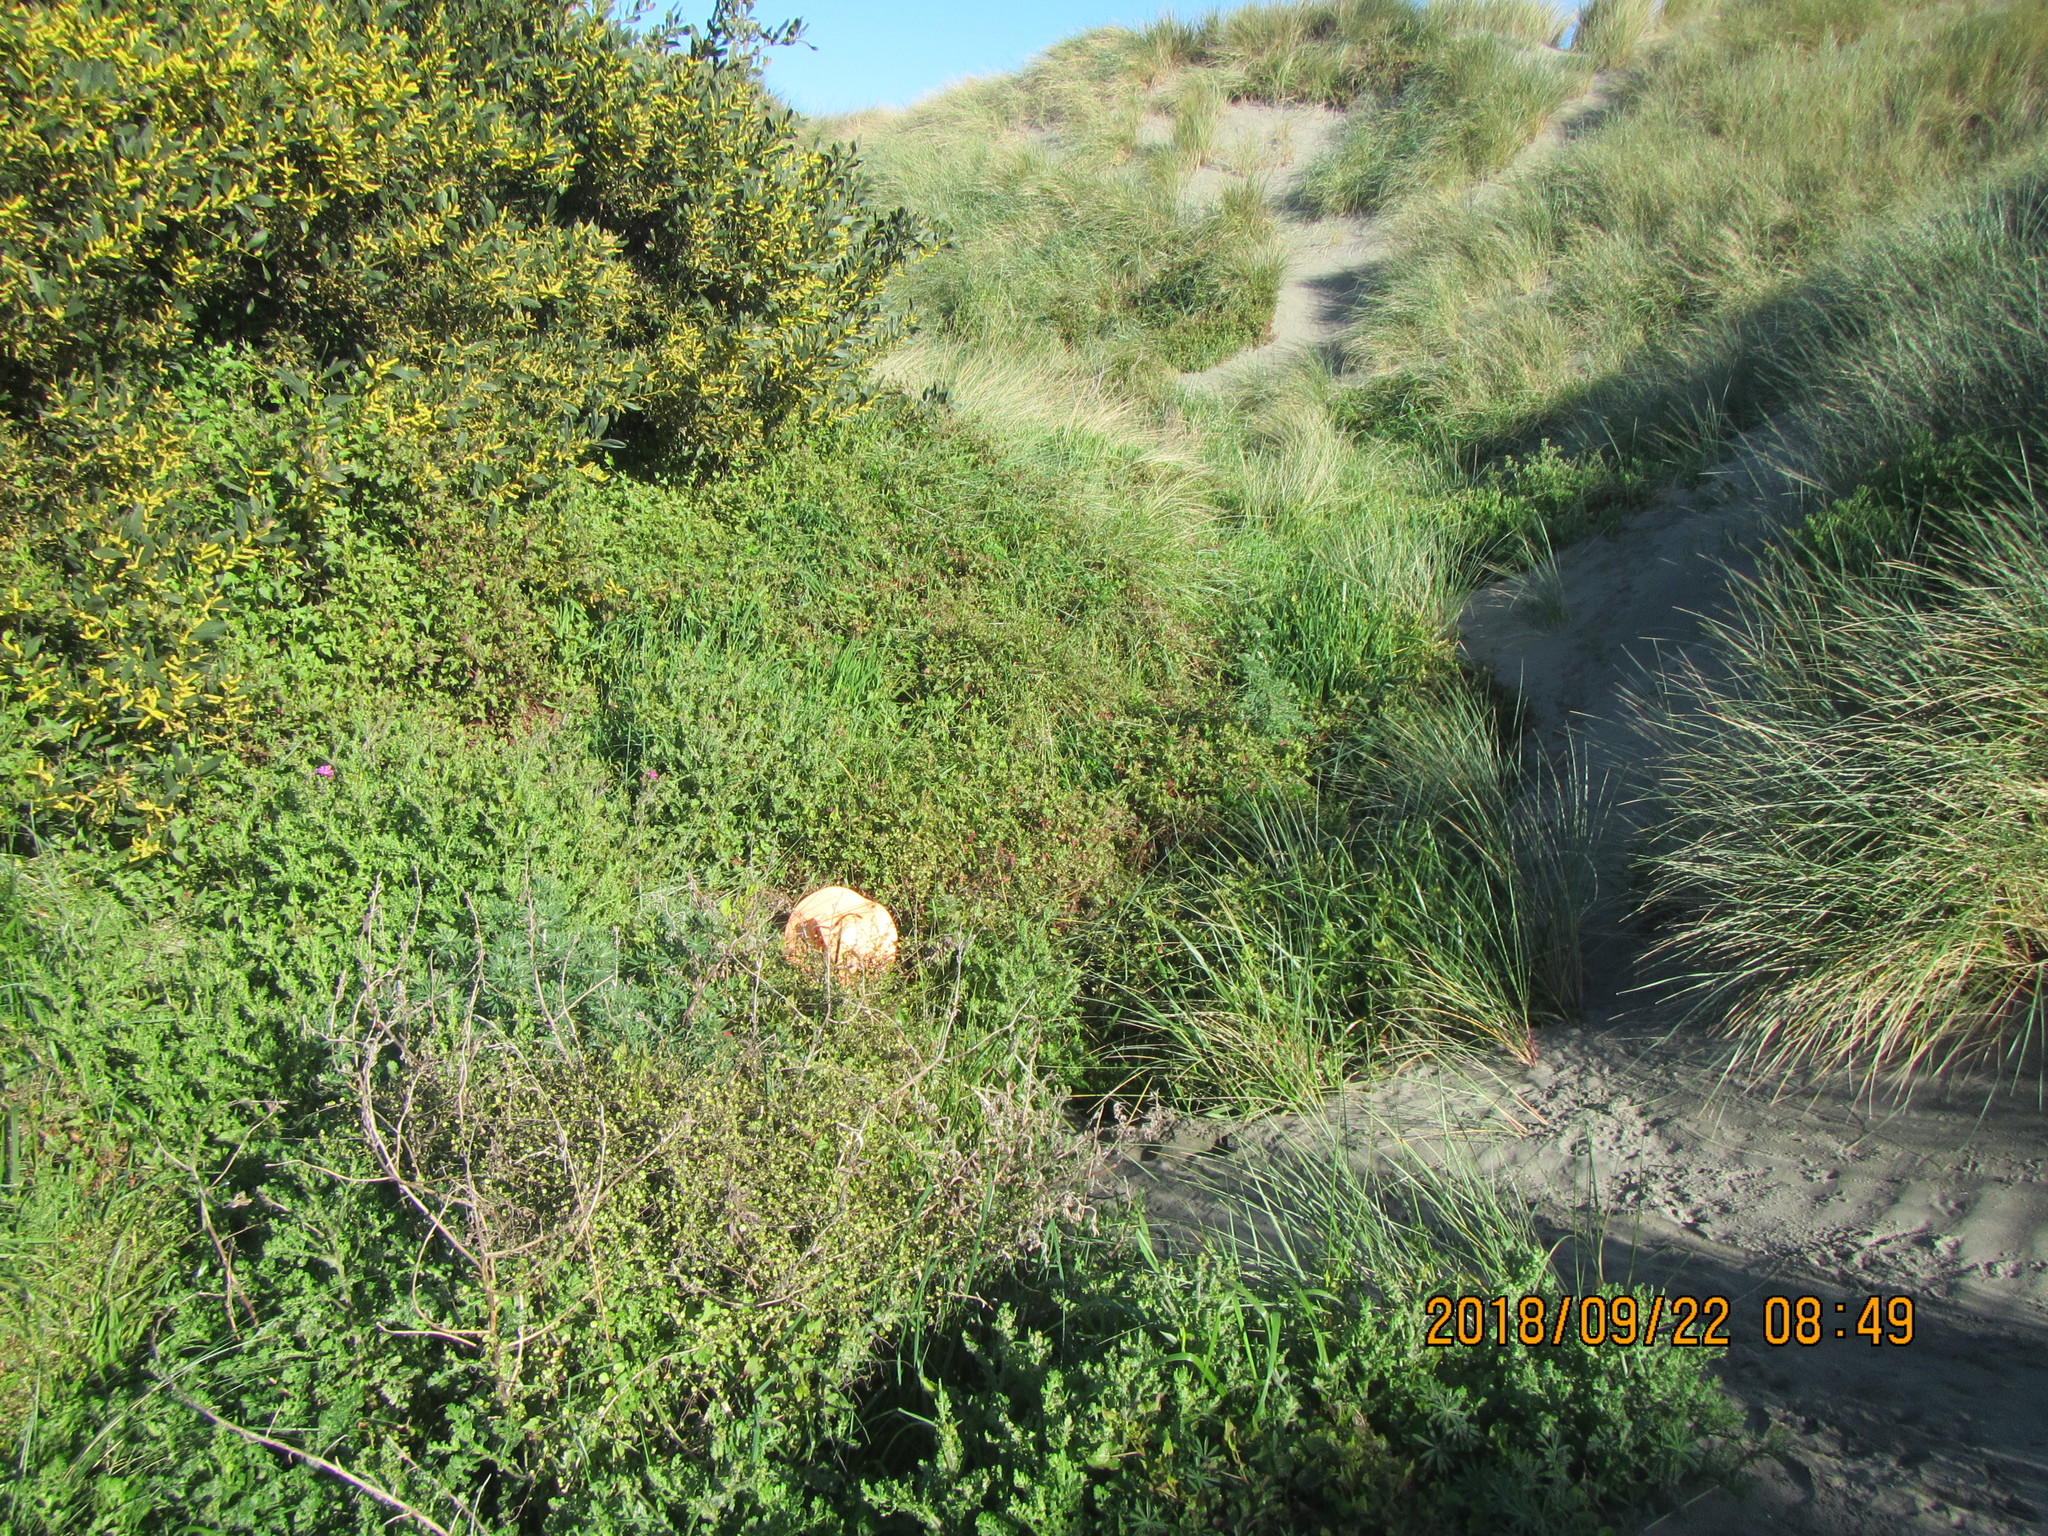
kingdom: Plantae
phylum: Tracheophyta
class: Magnoliopsida
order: Rosales
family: Rosaceae
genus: Acaena
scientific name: Acaena novae-zelandiae
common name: Pirri-pirri-bur
